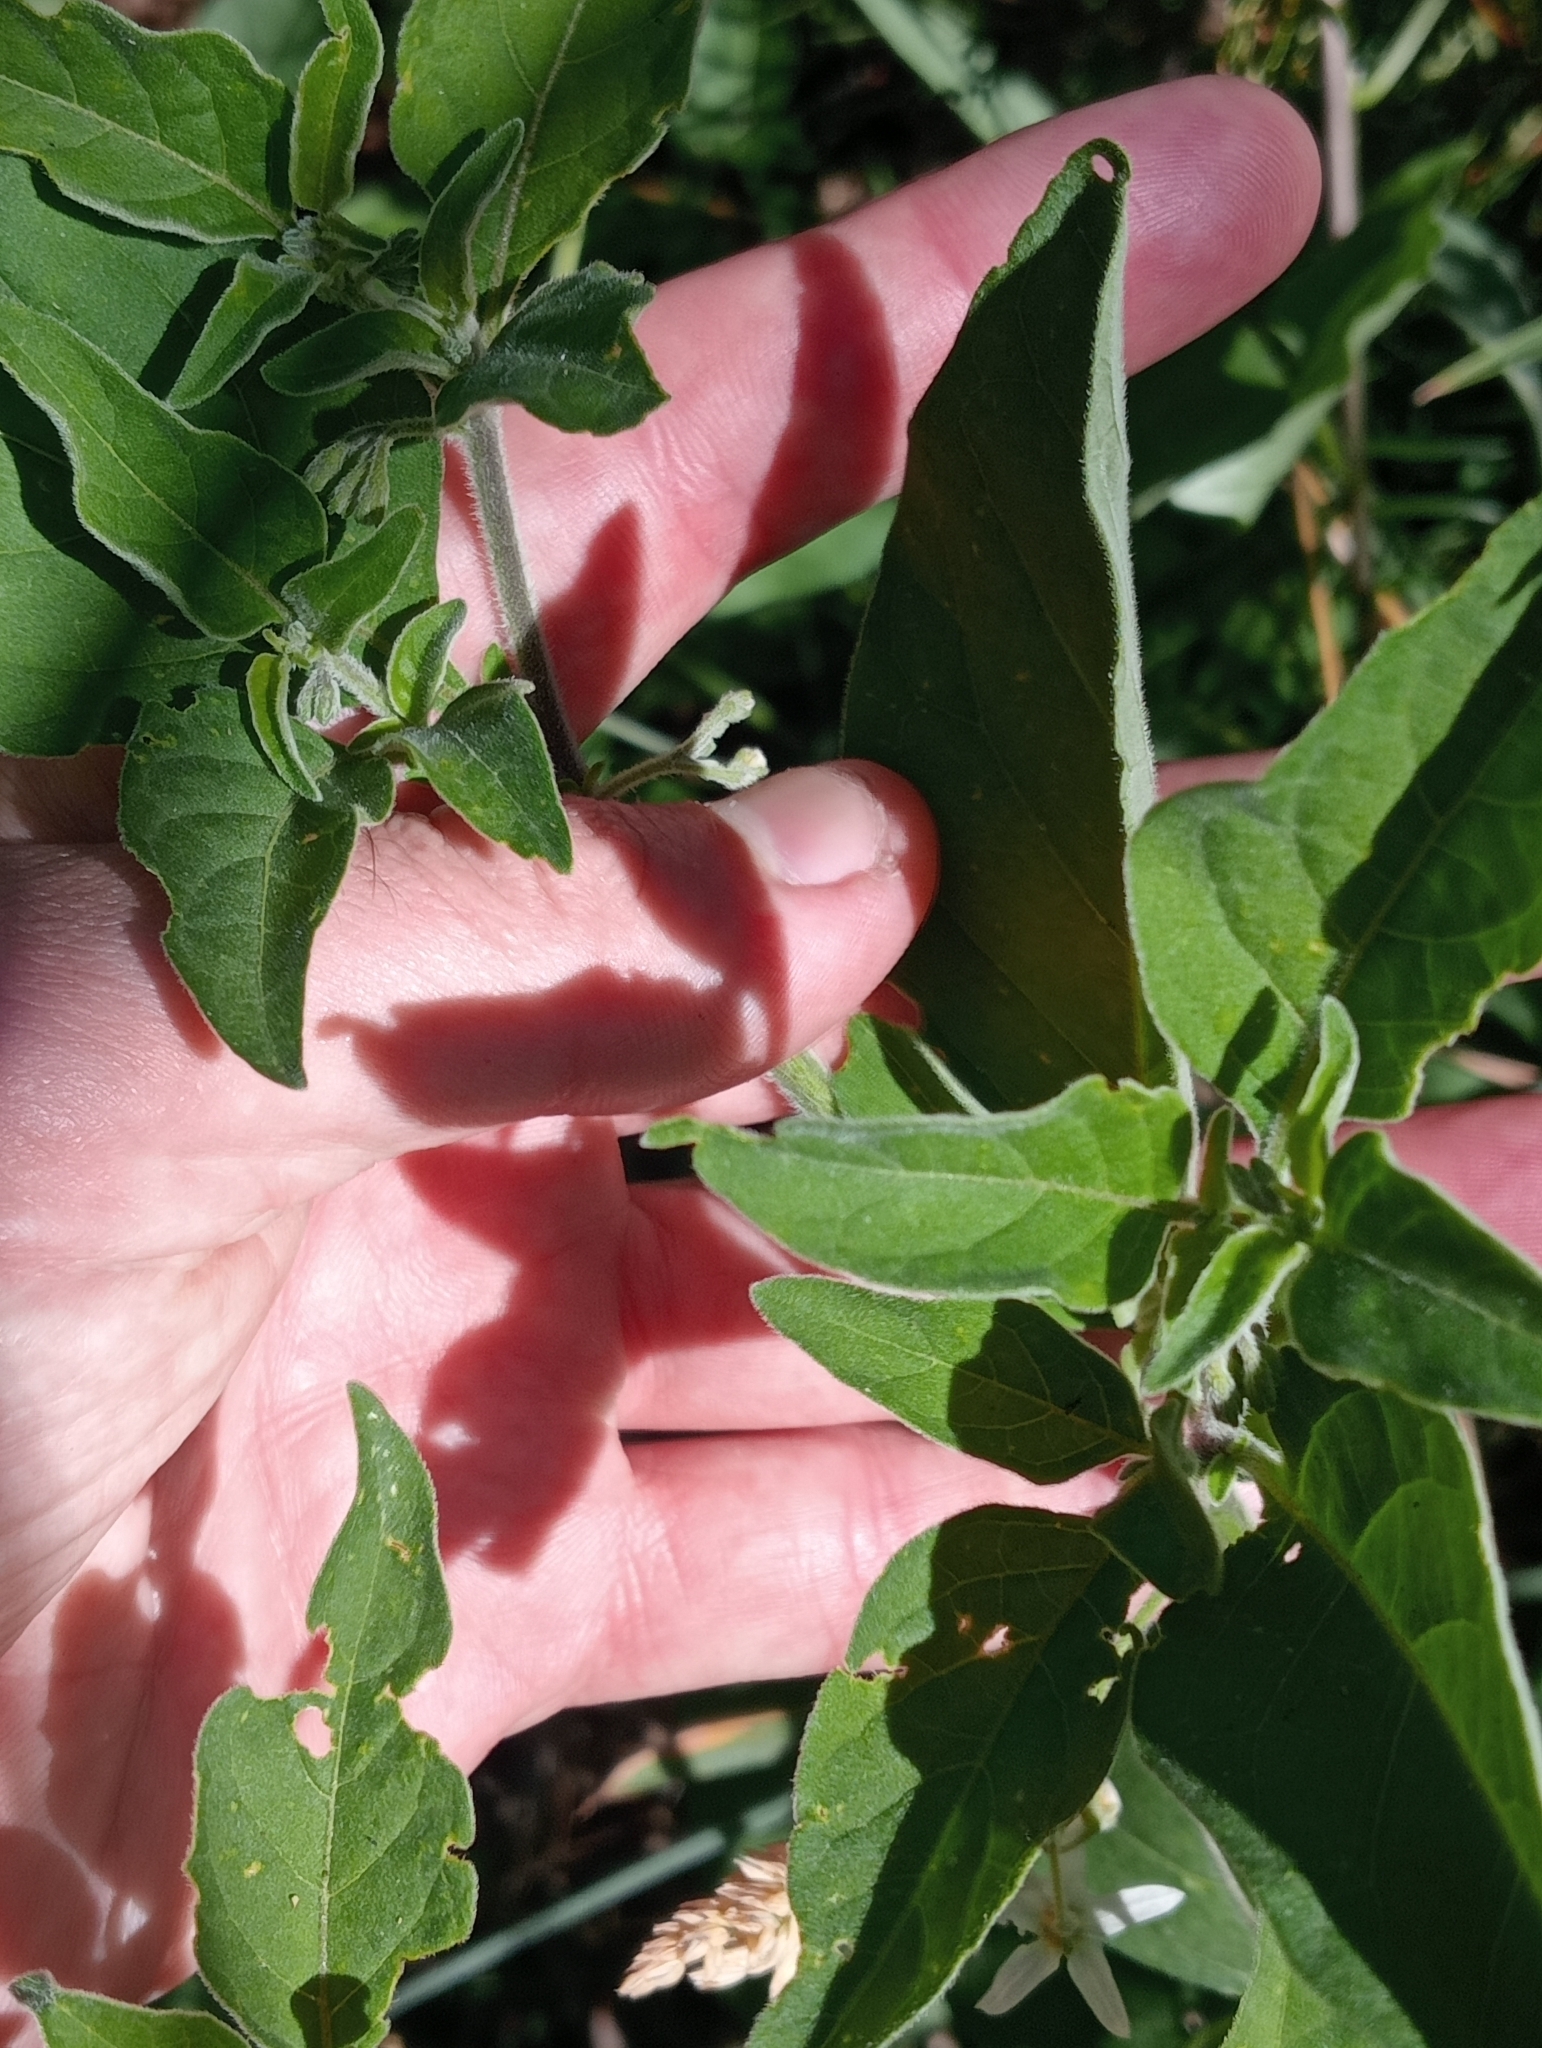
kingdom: Plantae
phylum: Tracheophyta
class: Magnoliopsida
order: Solanales
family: Solanaceae
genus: Solanum
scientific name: Solanum chenopodioides
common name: Tall nightshade
